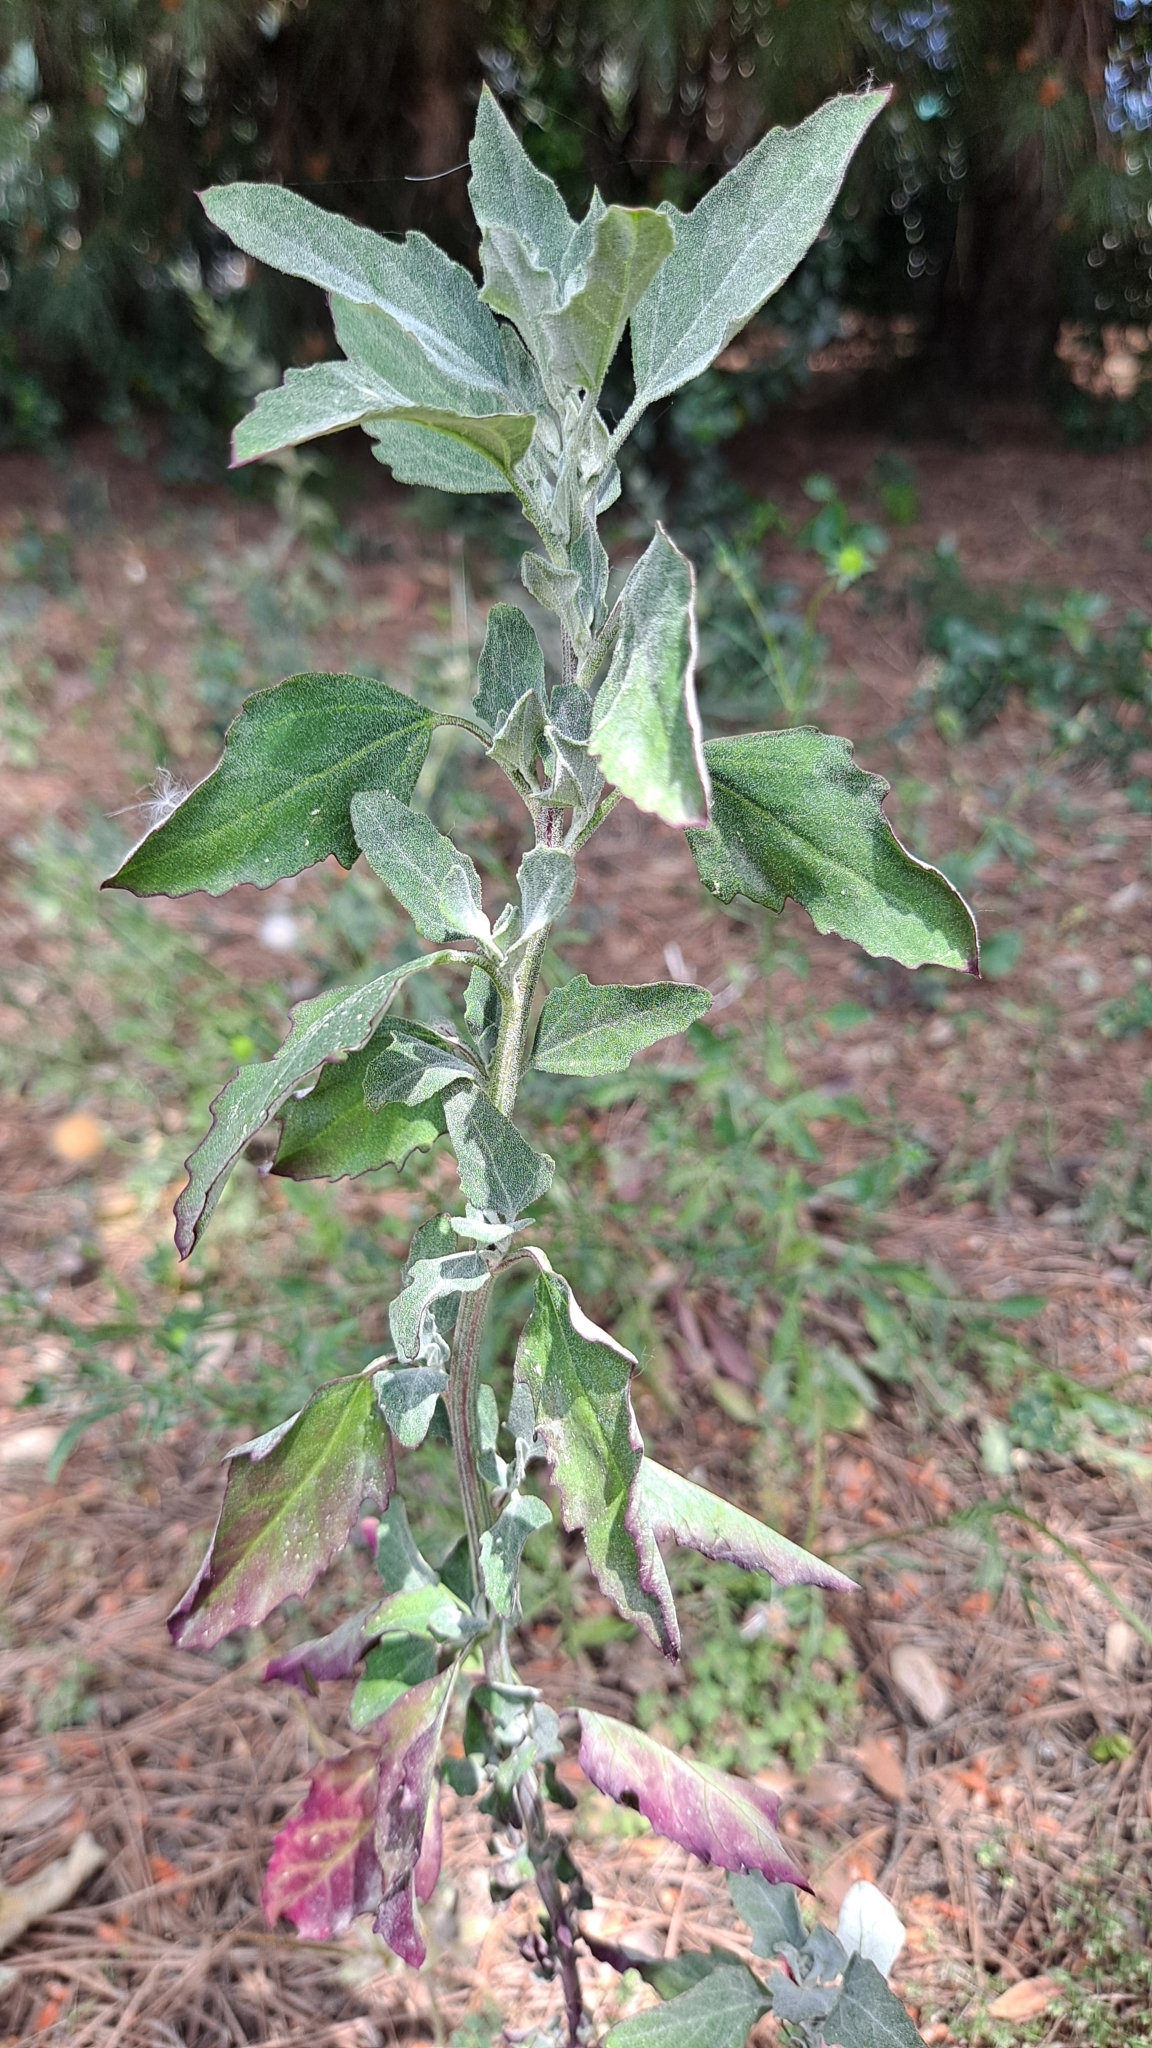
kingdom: Plantae
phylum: Tracheophyta
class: Magnoliopsida
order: Caryophyllales
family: Amaranthaceae
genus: Chenopodium
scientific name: Chenopodium album
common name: Fat-hen
